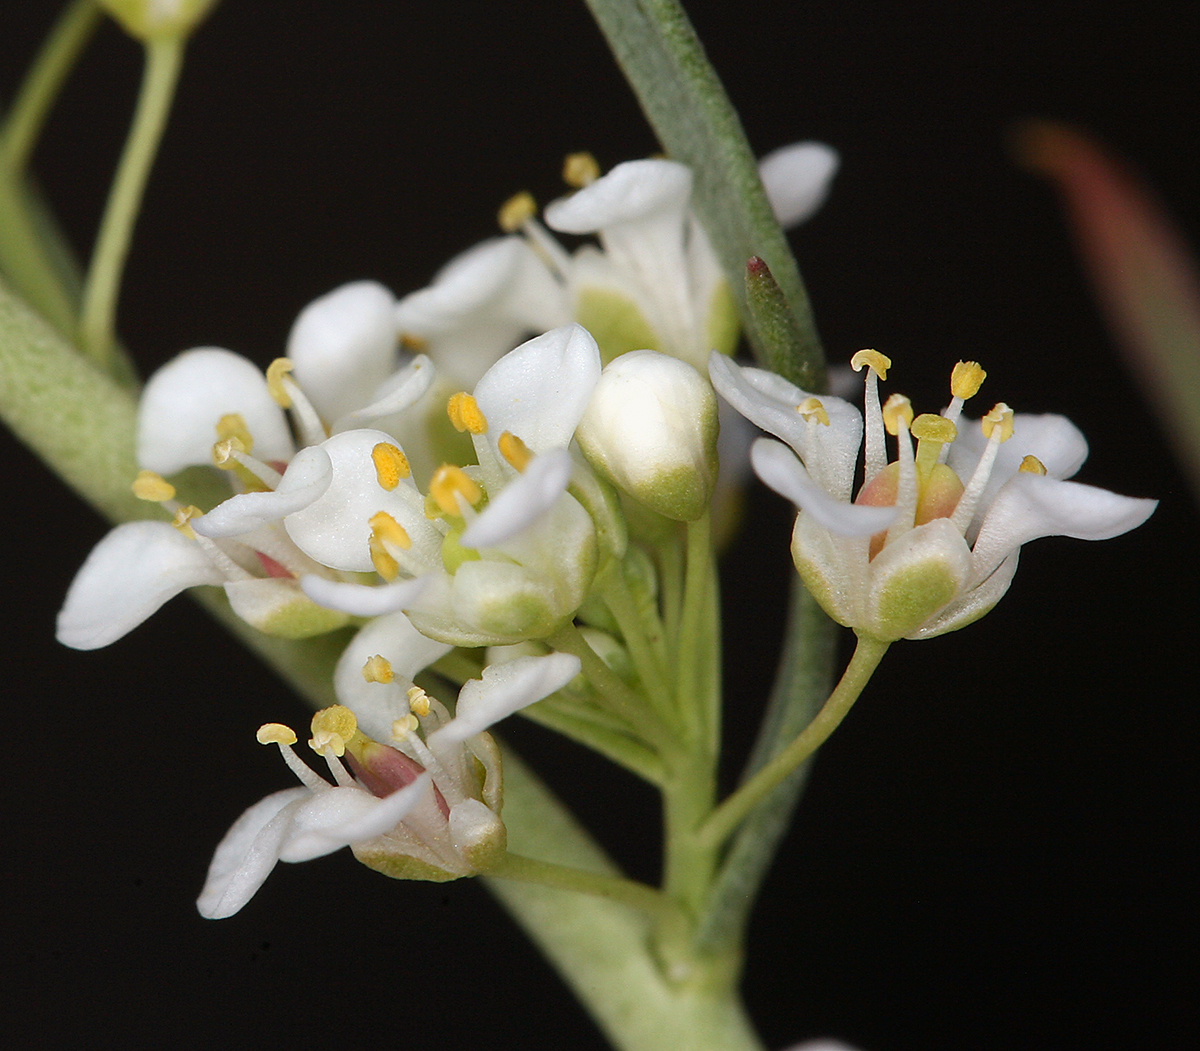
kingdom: Plantae
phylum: Tracheophyta
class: Magnoliopsida
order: Brassicales
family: Brassicaceae
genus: Lepidium
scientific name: Lepidium fremontii
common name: Fremont's pepperwort
